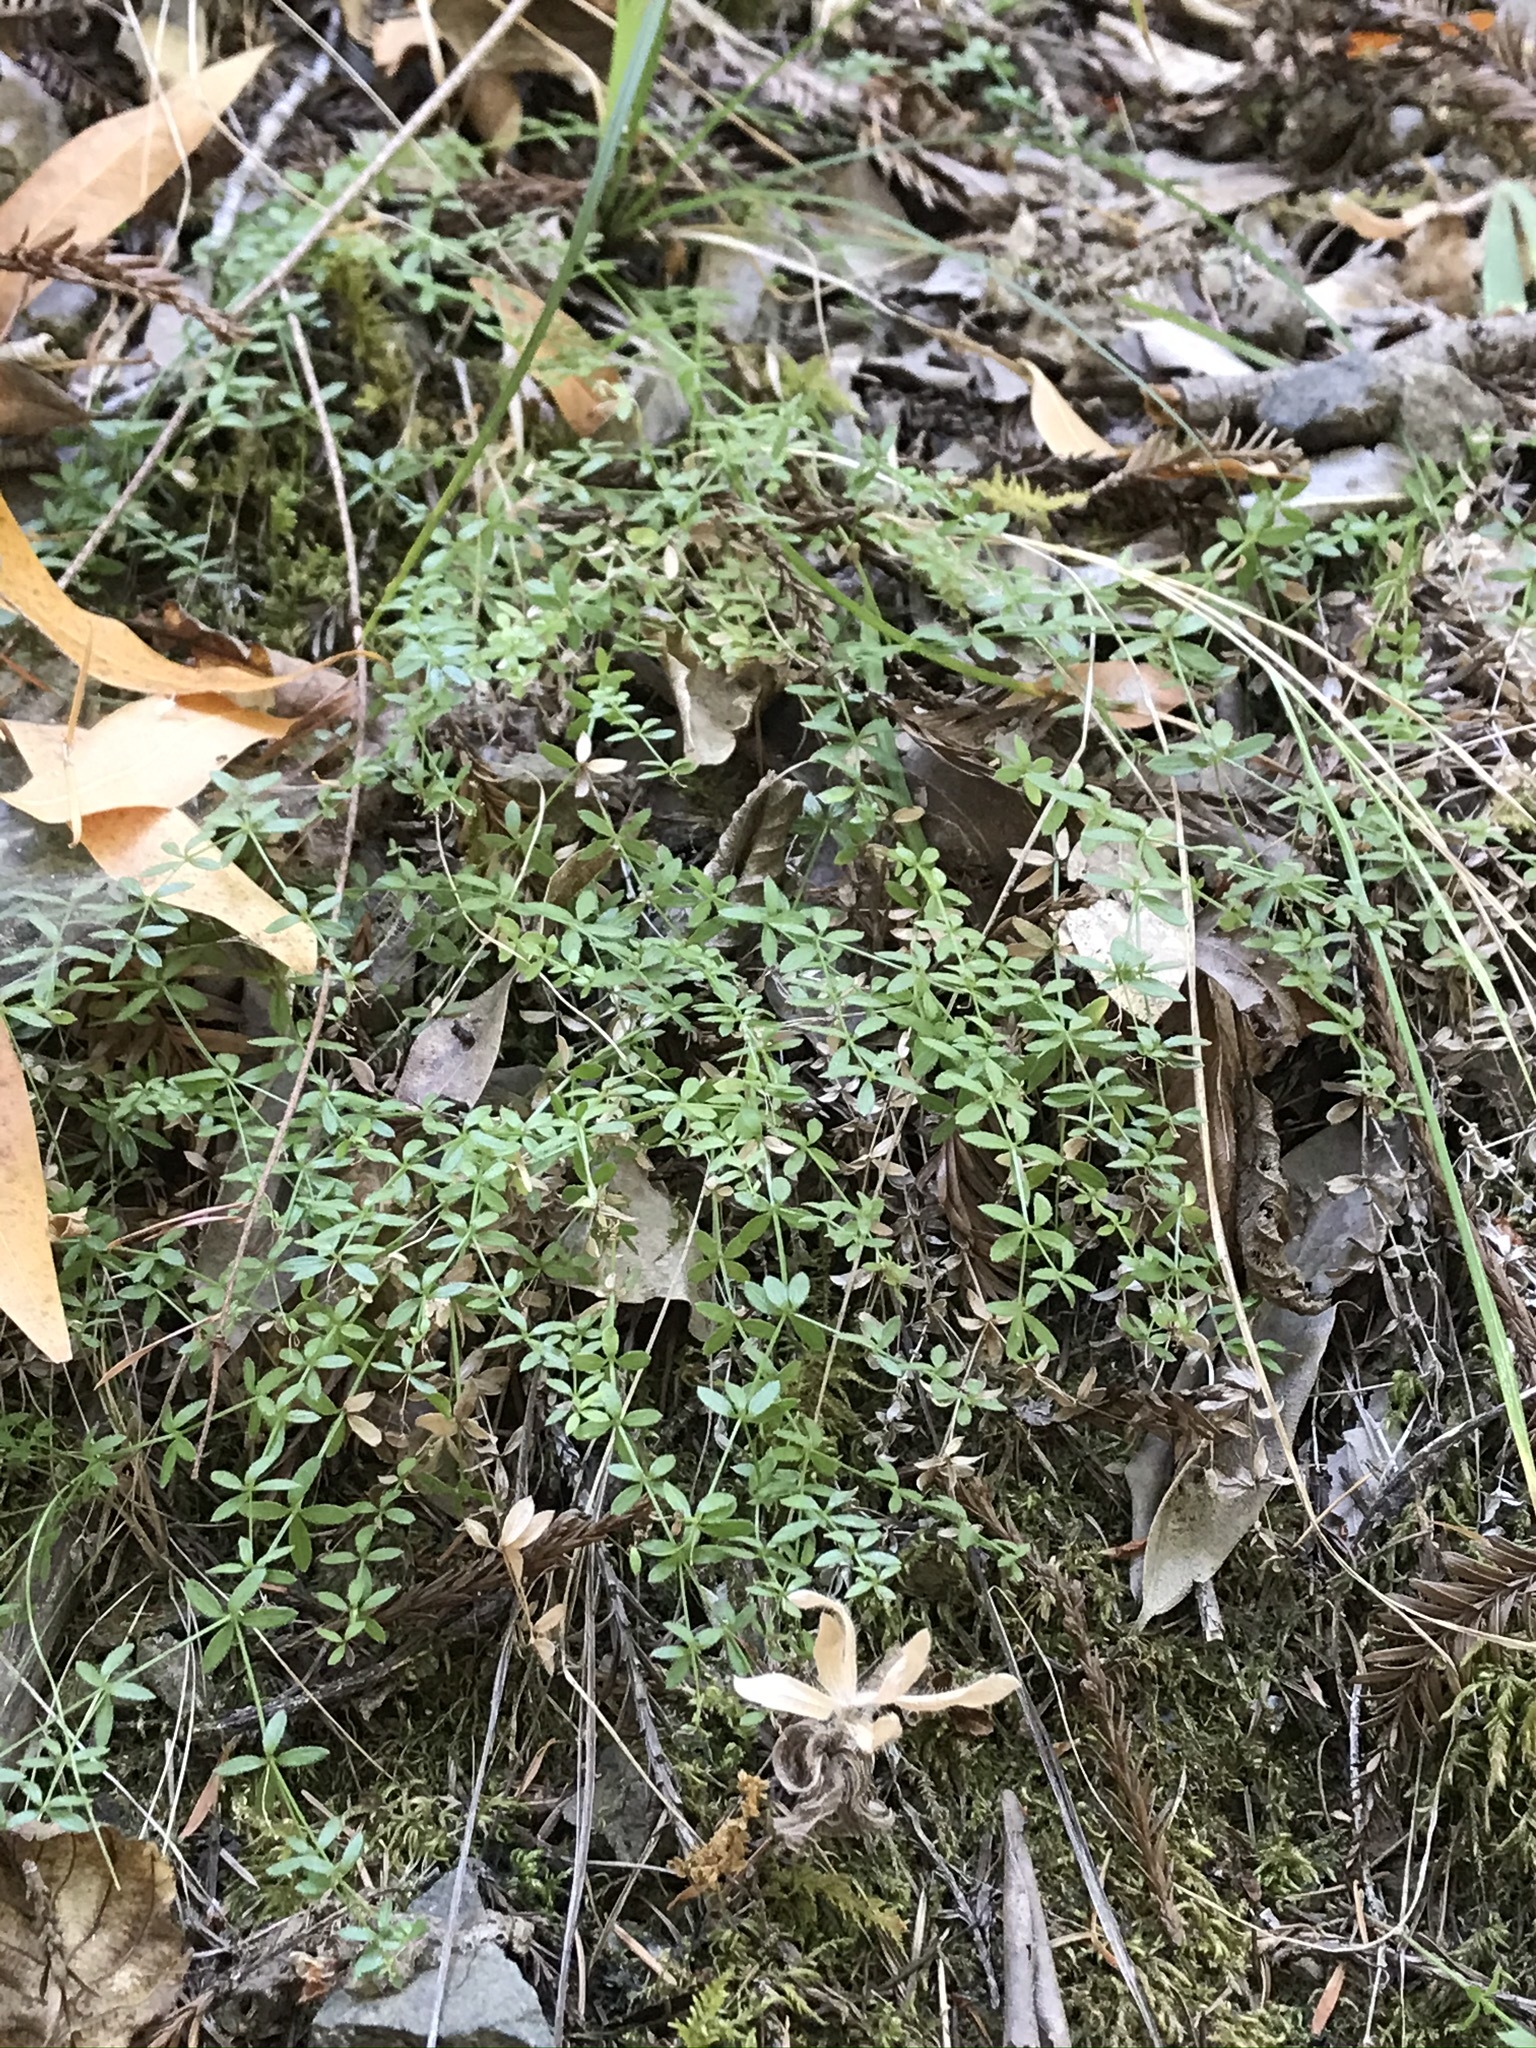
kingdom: Plantae
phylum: Tracheophyta
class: Magnoliopsida
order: Gentianales
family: Rubiaceae
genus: Galium
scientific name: Galium muricatum
